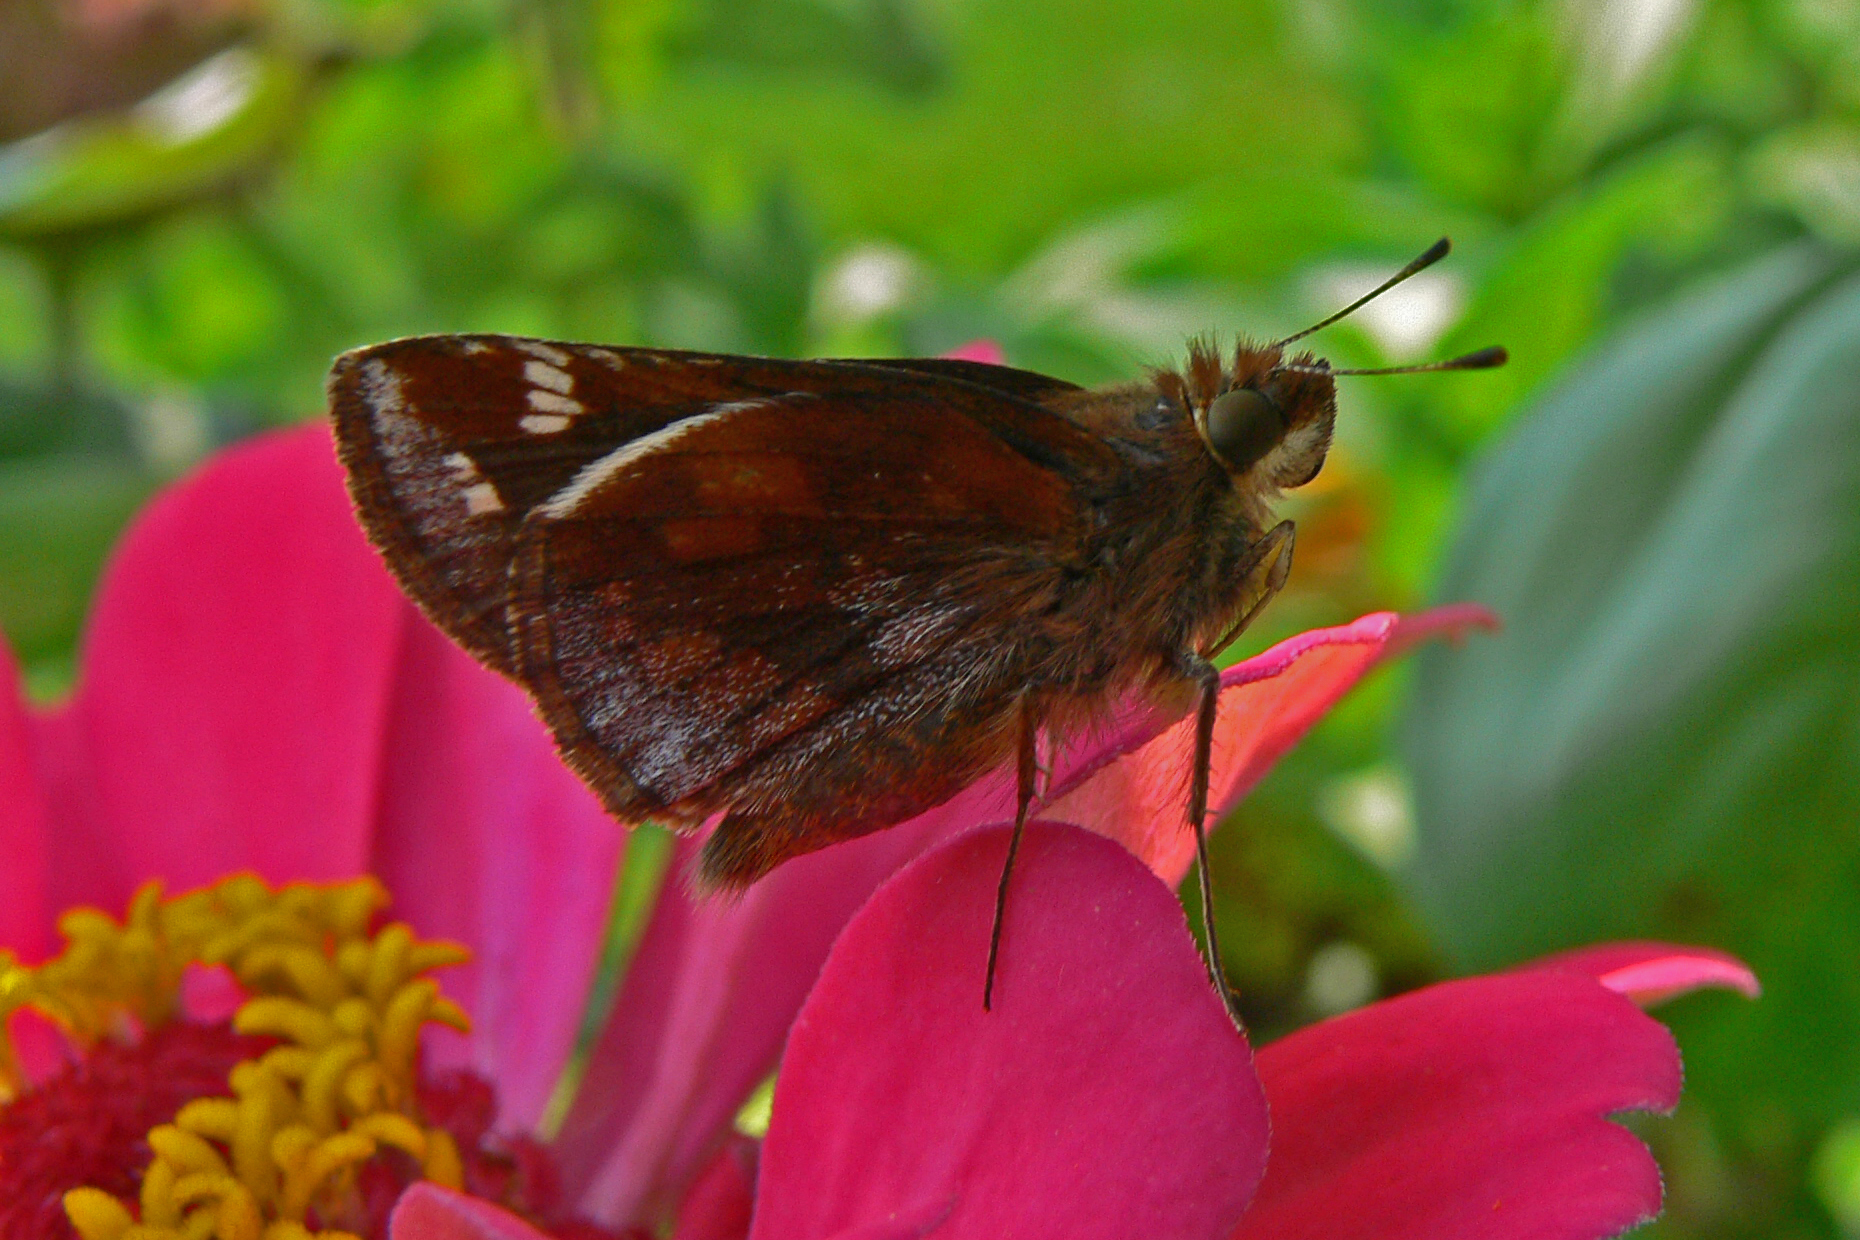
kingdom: Animalia
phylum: Arthropoda
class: Insecta
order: Lepidoptera
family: Hesperiidae
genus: Lon
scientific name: Lon zabulon
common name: Zabulon skipper
